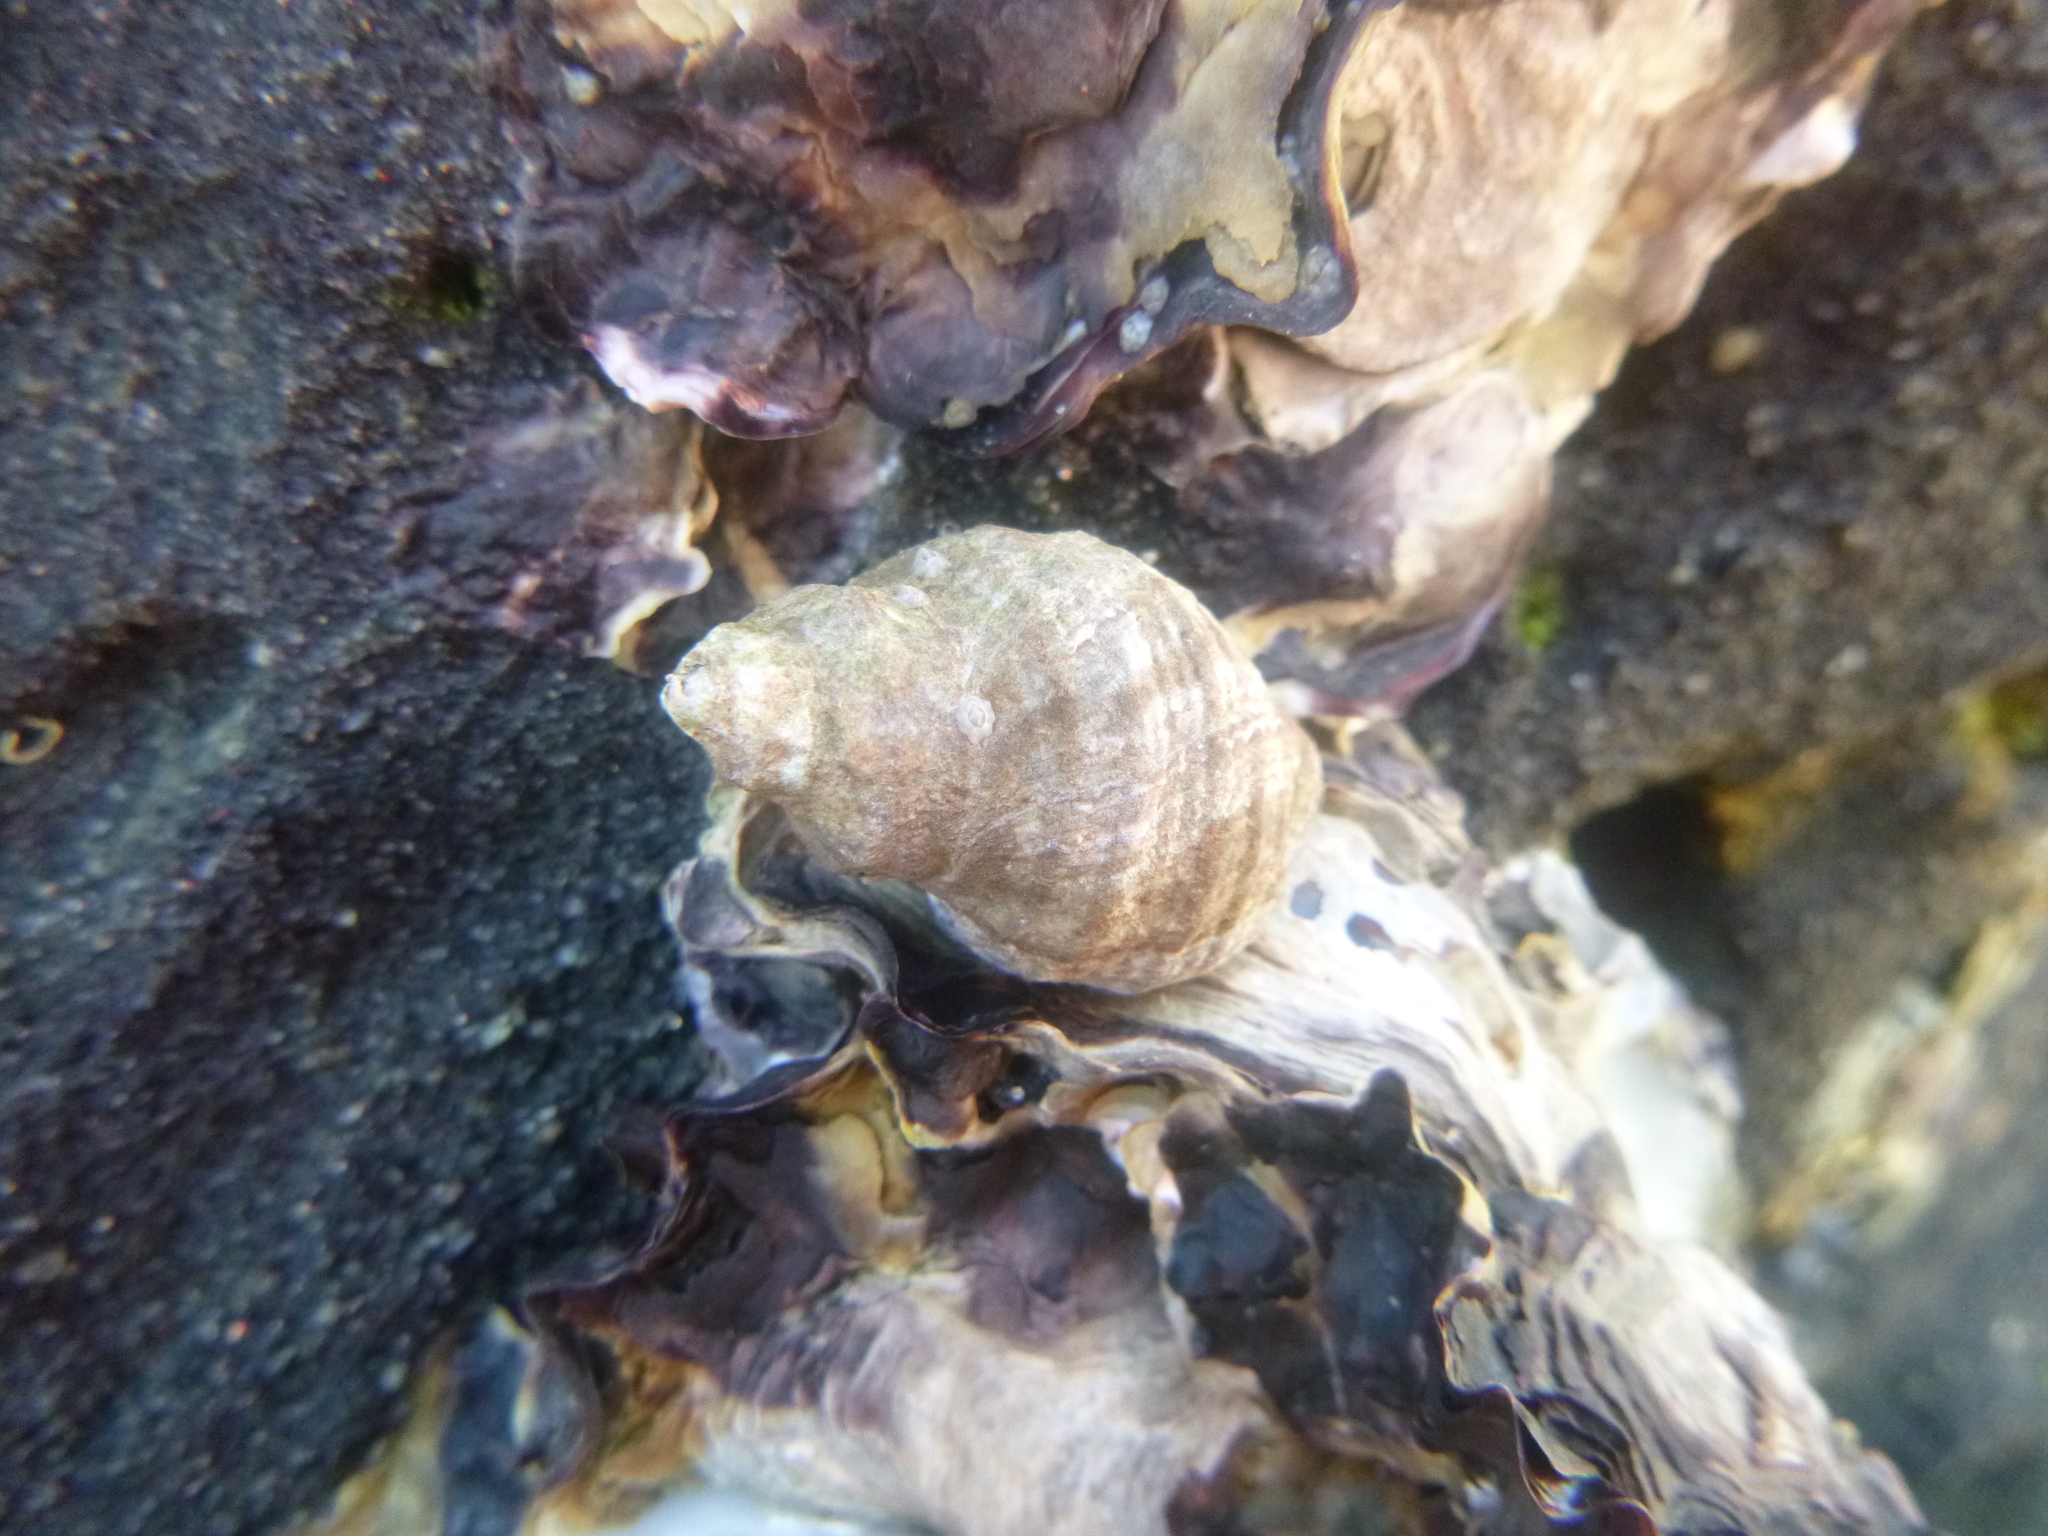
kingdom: Animalia
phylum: Mollusca
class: Gastropoda
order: Neogastropoda
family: Muricidae
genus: Haustrum
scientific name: Haustrum albomarginatum
